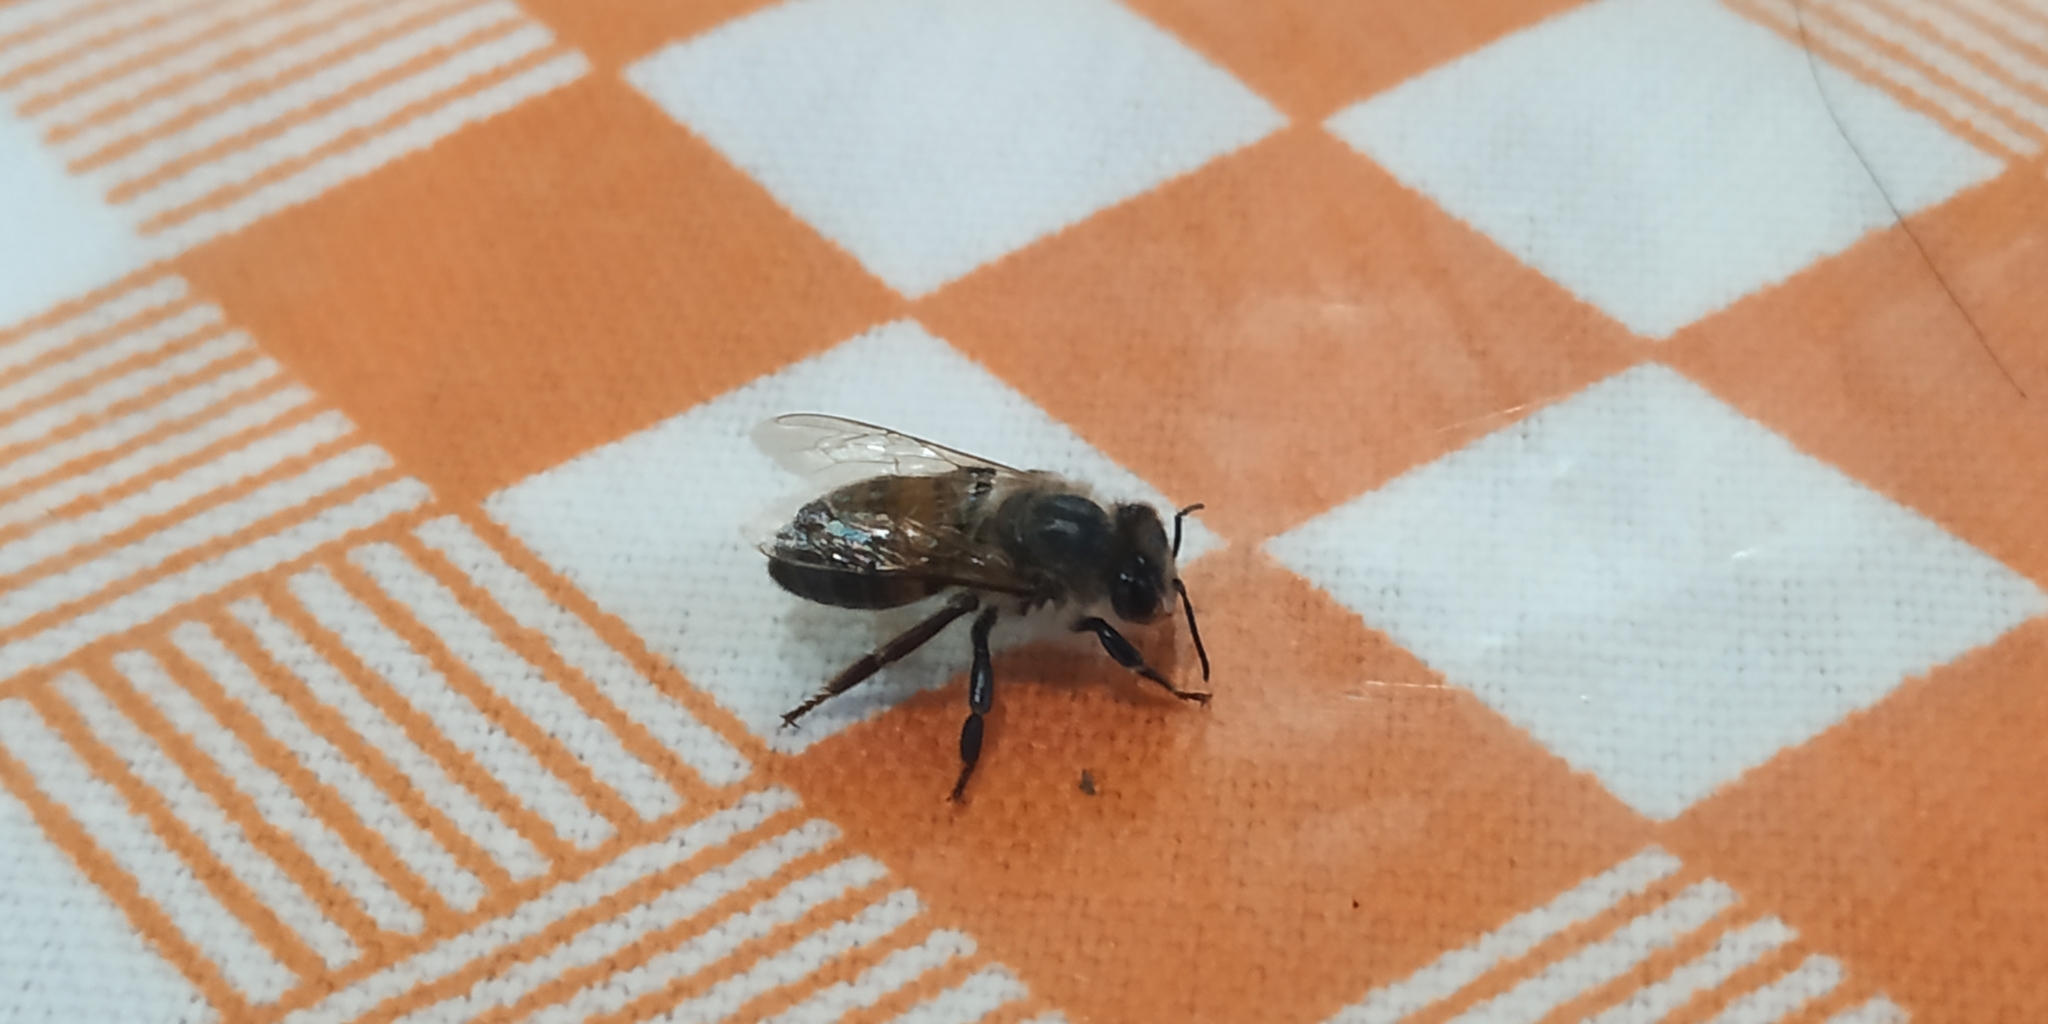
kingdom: Animalia
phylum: Arthropoda
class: Insecta
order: Hymenoptera
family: Apidae
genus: Apis
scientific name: Apis mellifera
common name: Honey bee
